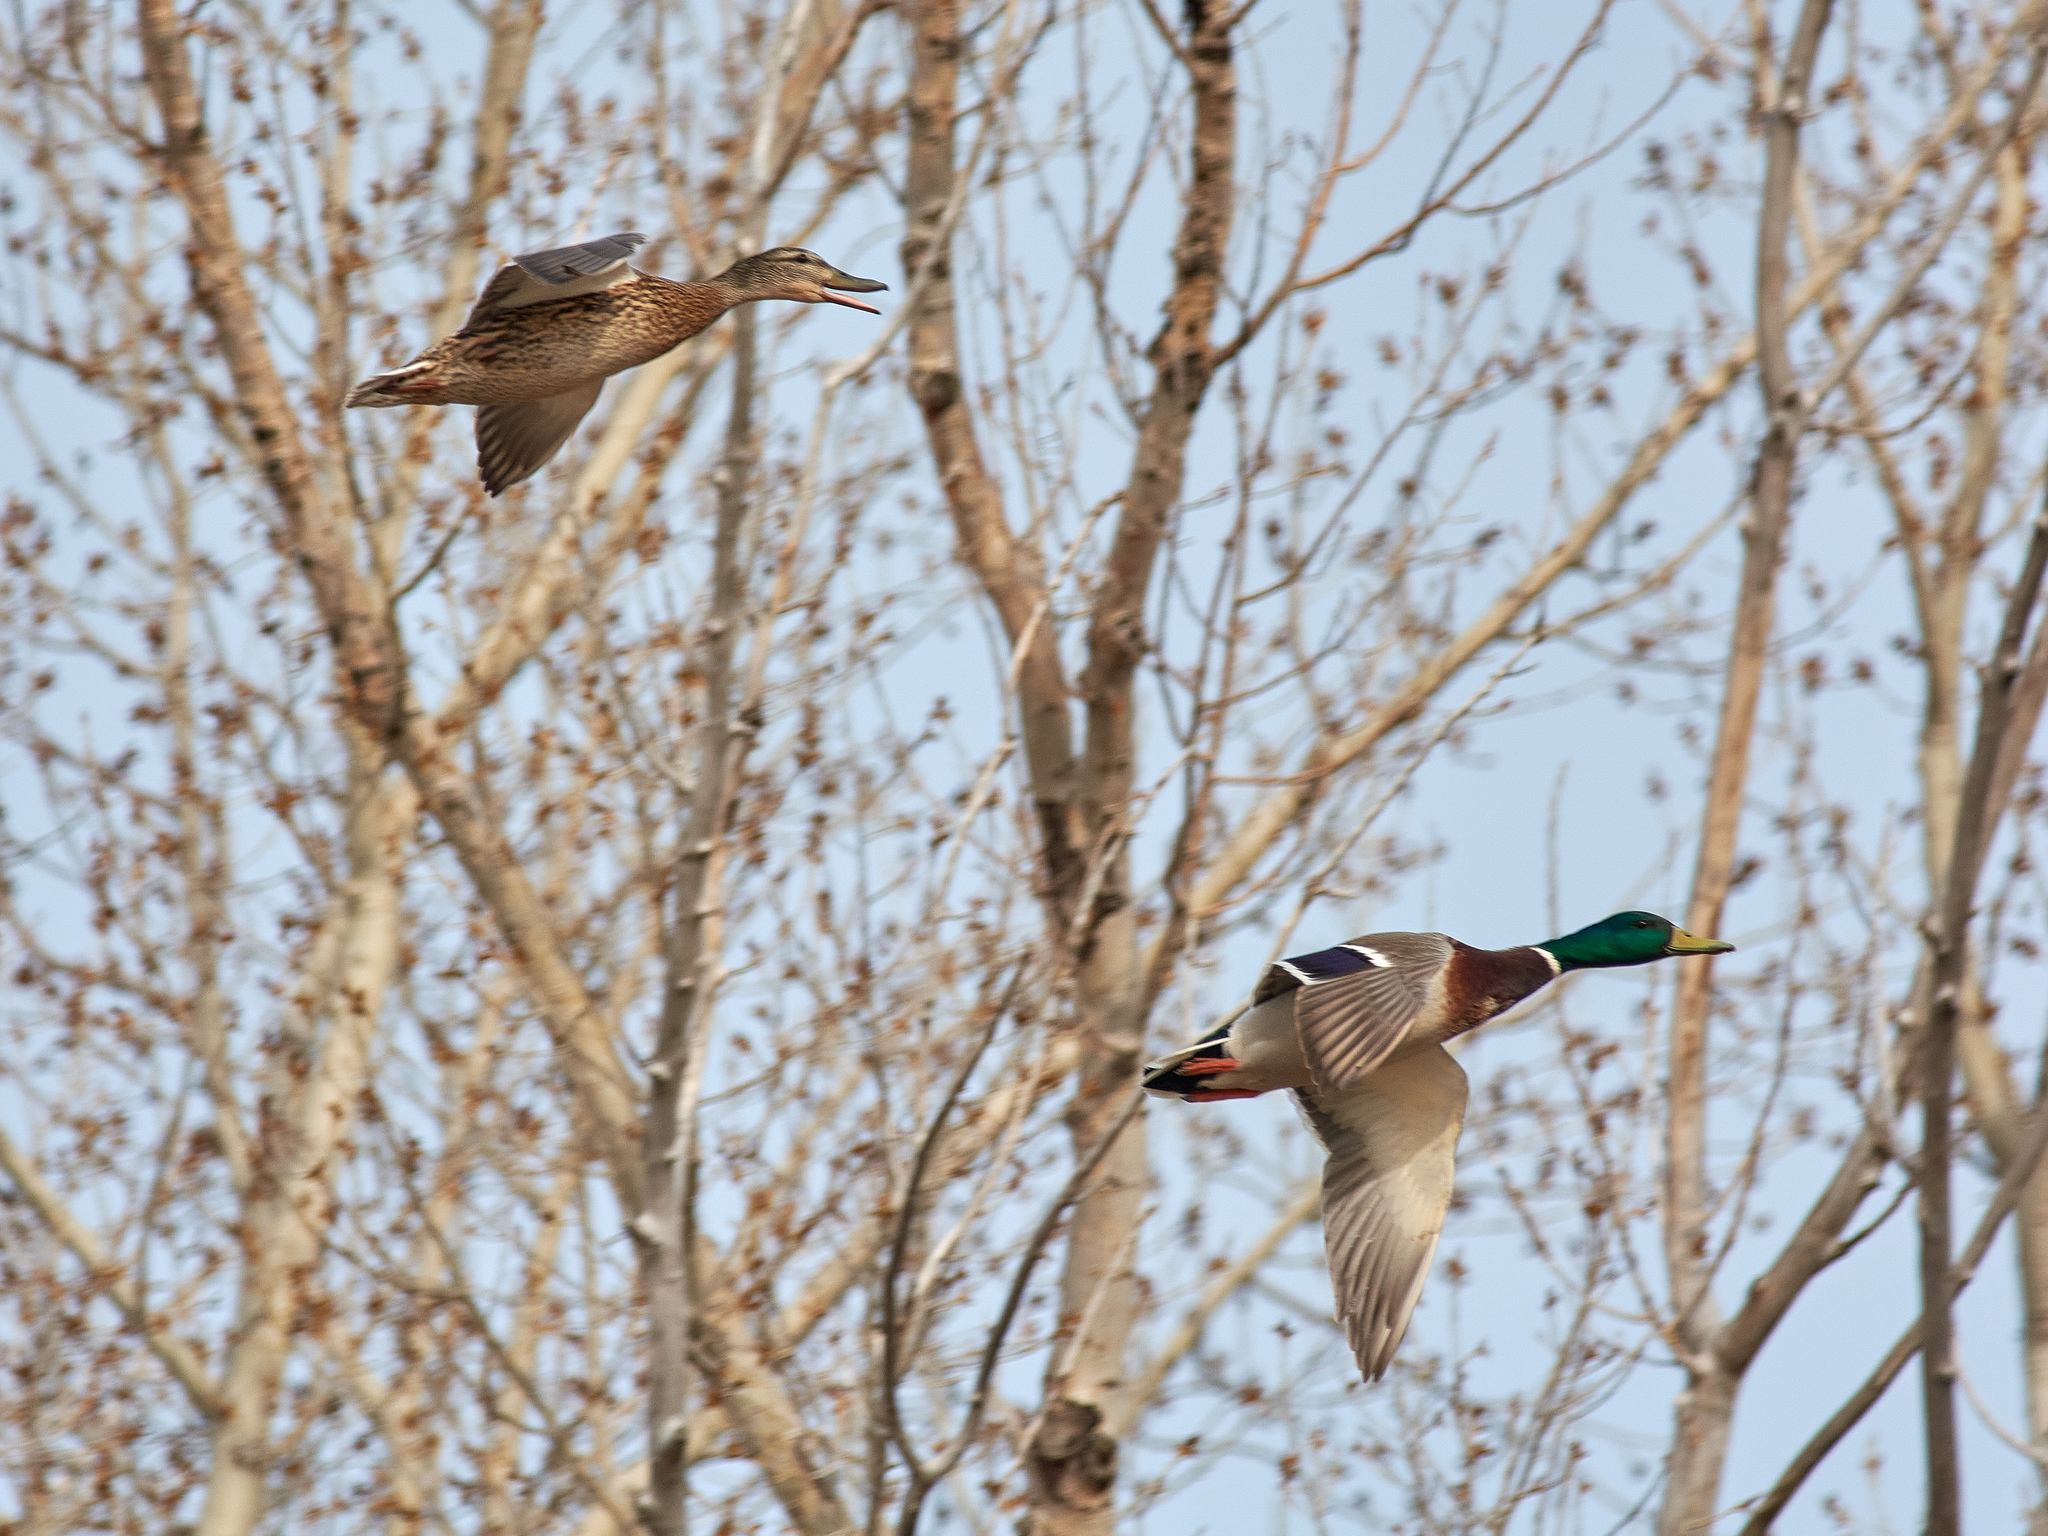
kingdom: Animalia
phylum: Chordata
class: Aves
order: Anseriformes
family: Anatidae
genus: Anas
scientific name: Anas platyrhynchos
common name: Mallard
